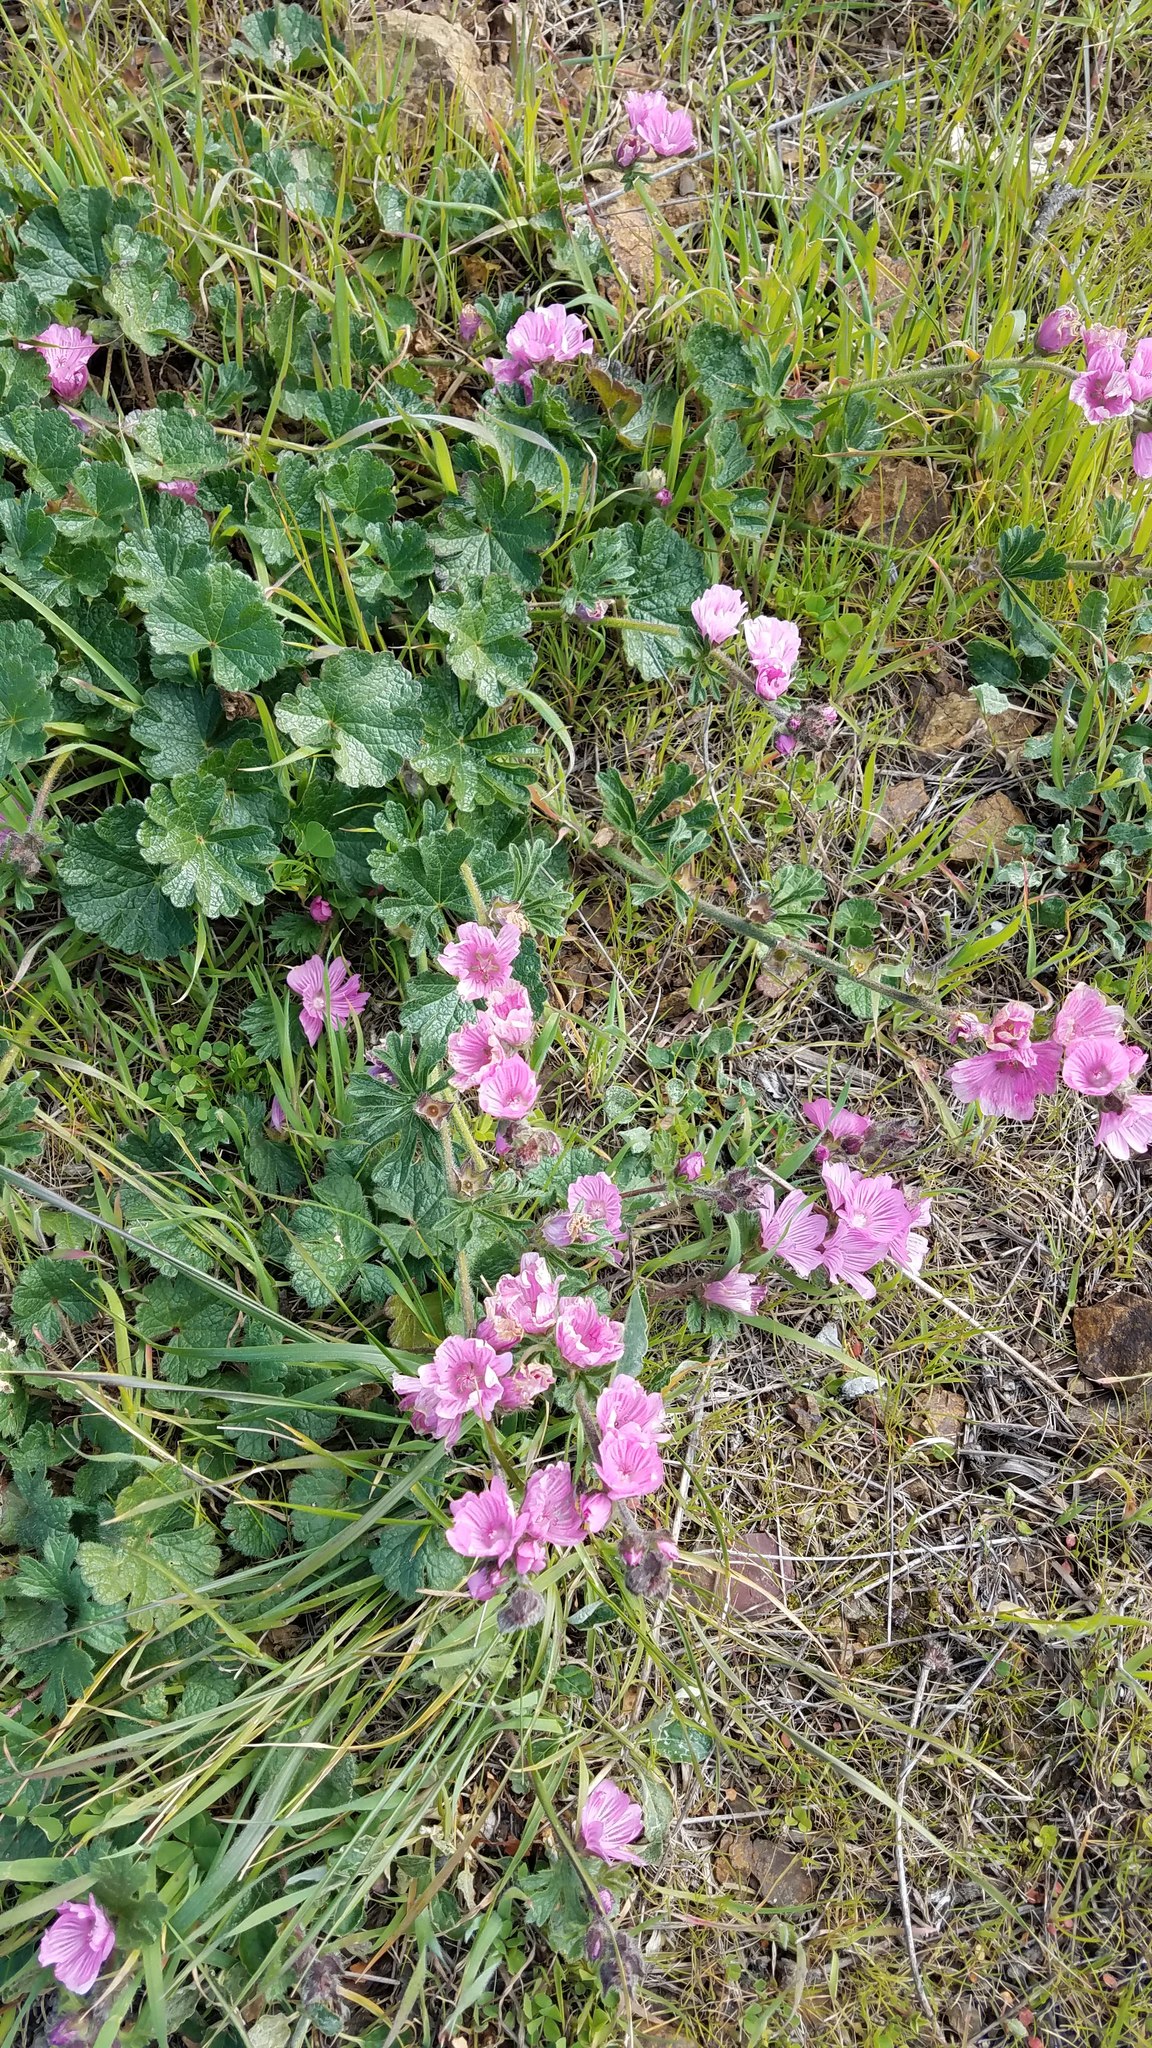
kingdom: Plantae
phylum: Tracheophyta
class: Magnoliopsida
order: Malvales
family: Malvaceae
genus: Sidalcea
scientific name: Sidalcea malviflora
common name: Greek mallow
